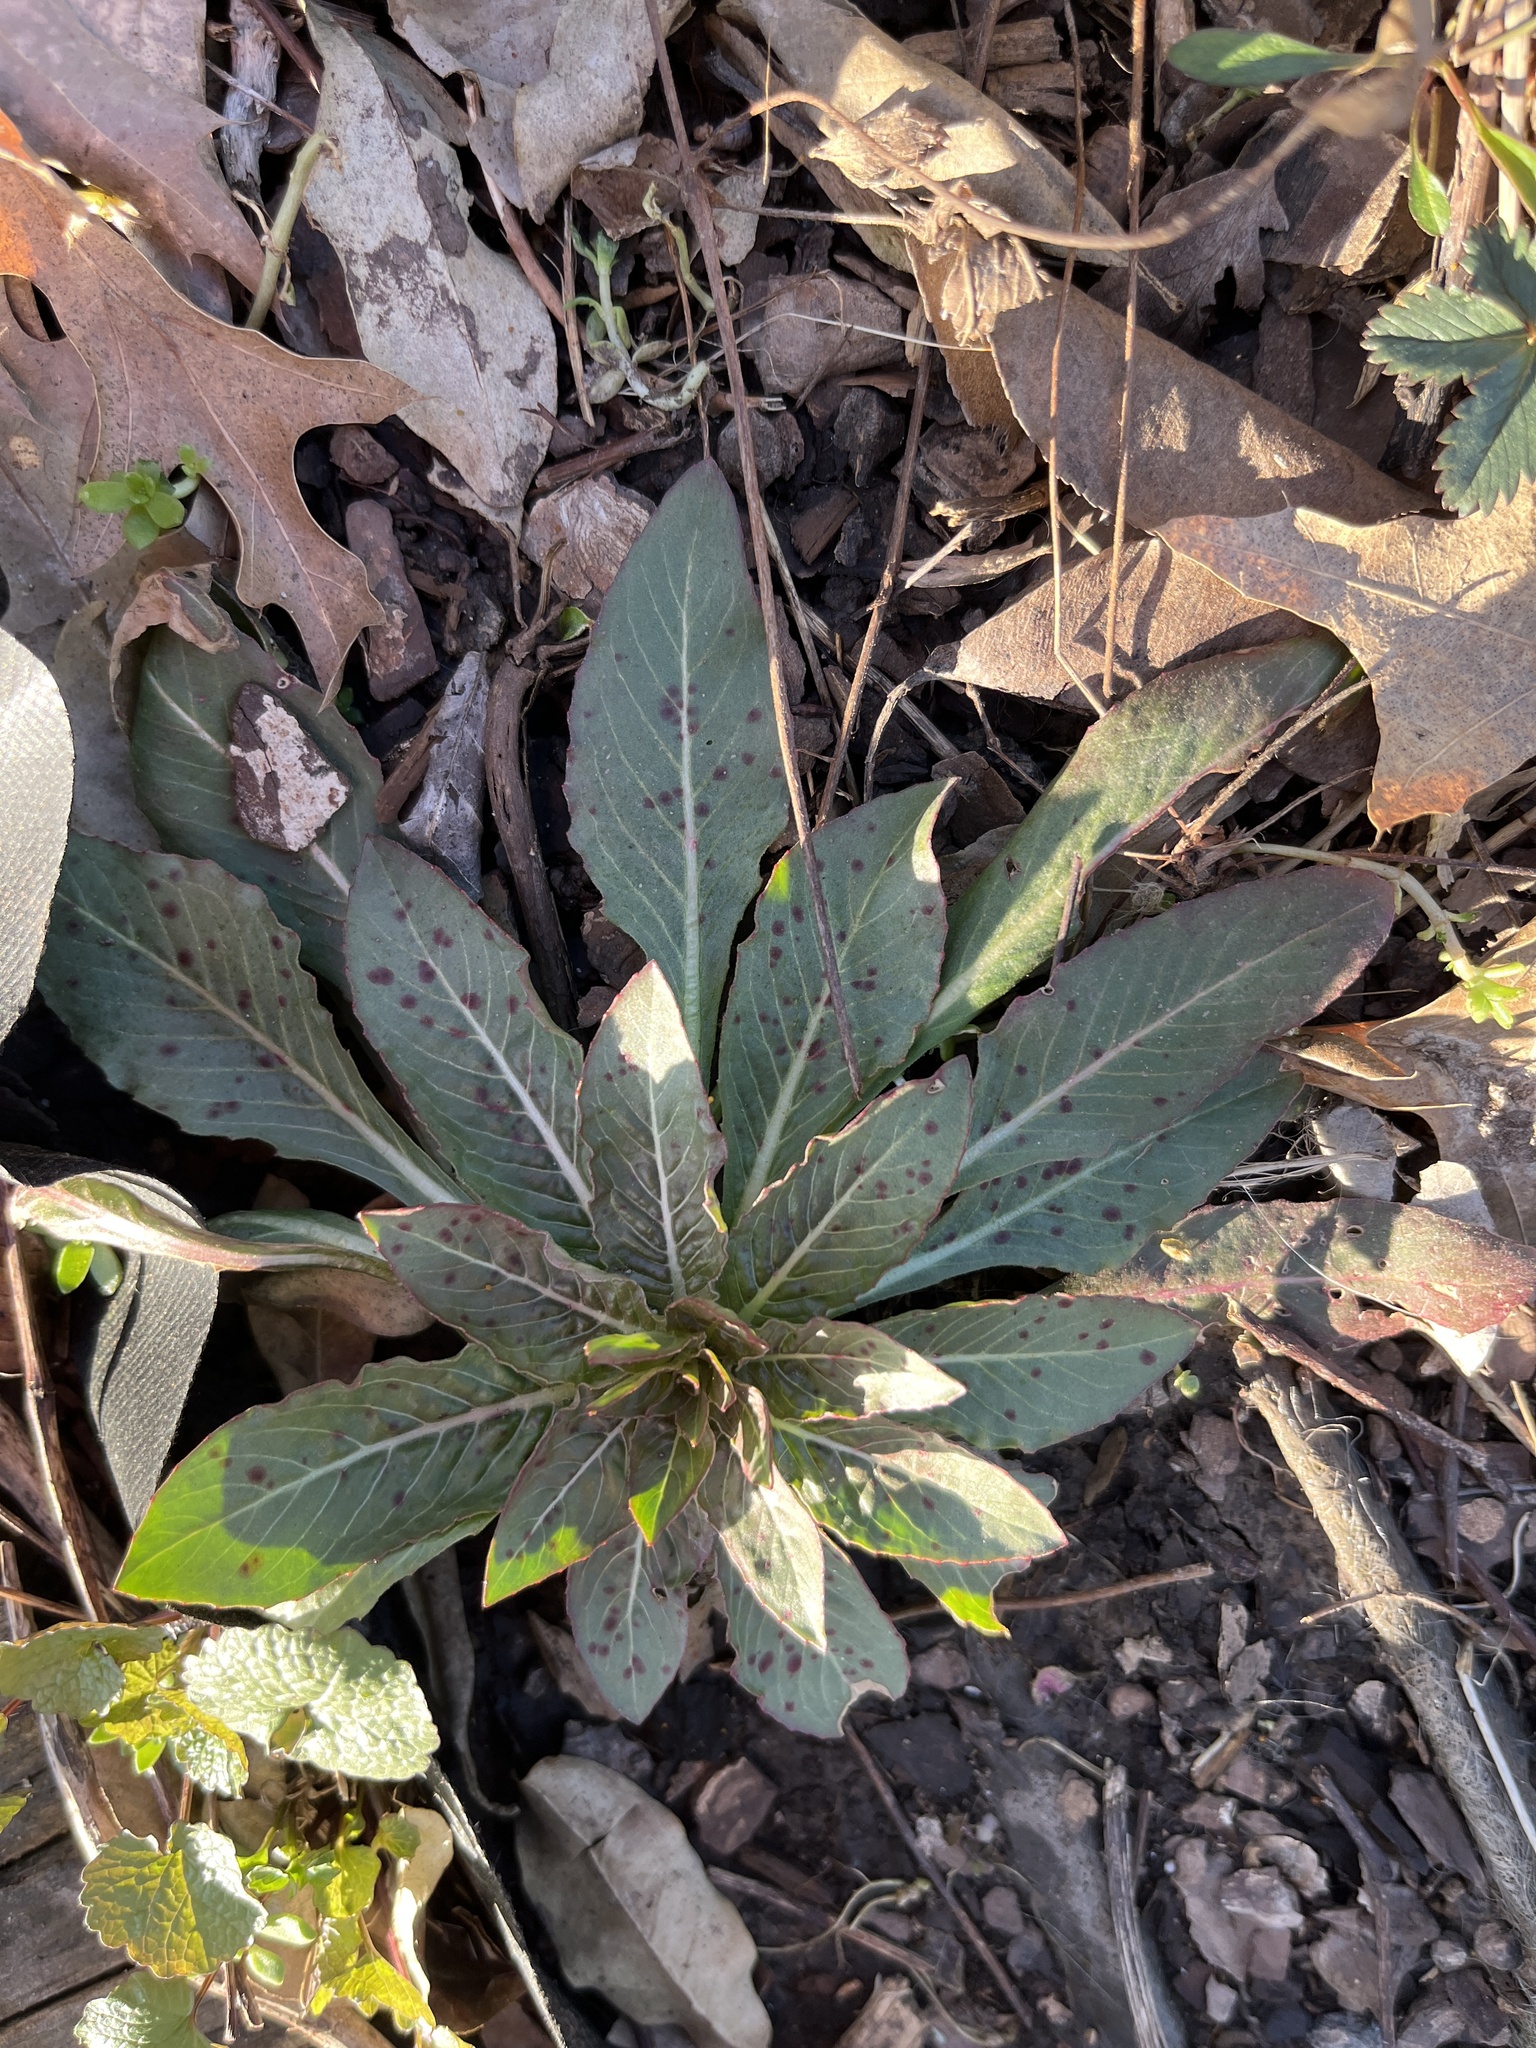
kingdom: Plantae
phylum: Tracheophyta
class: Magnoliopsida
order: Myrtales
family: Onagraceae
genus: Oenothera
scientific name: Oenothera biennis
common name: Common evening-primrose
